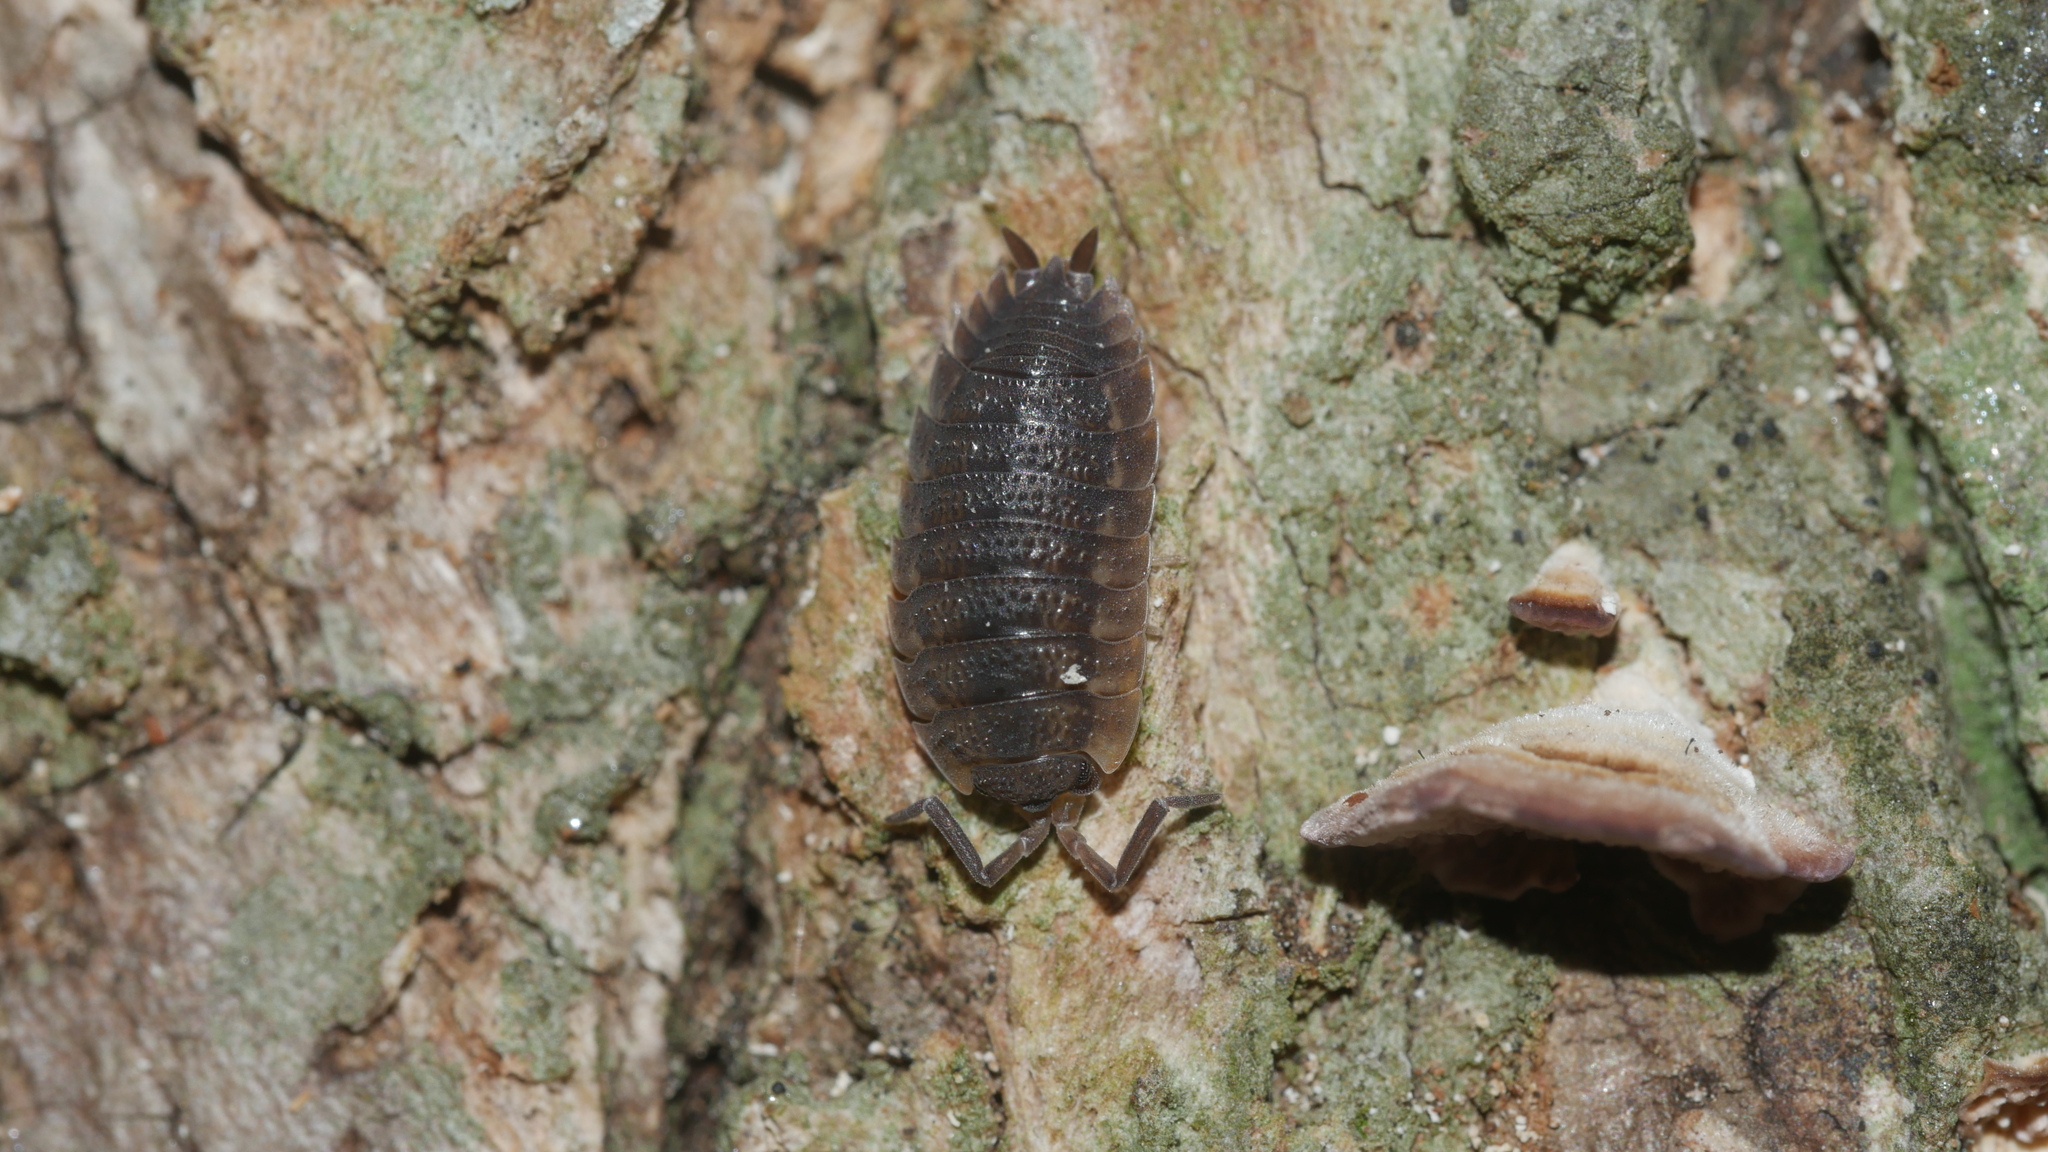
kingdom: Animalia
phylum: Arthropoda
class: Malacostraca
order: Isopoda
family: Porcellionidae
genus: Porcellio
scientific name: Porcellio scaber
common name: Common rough woodlouse
